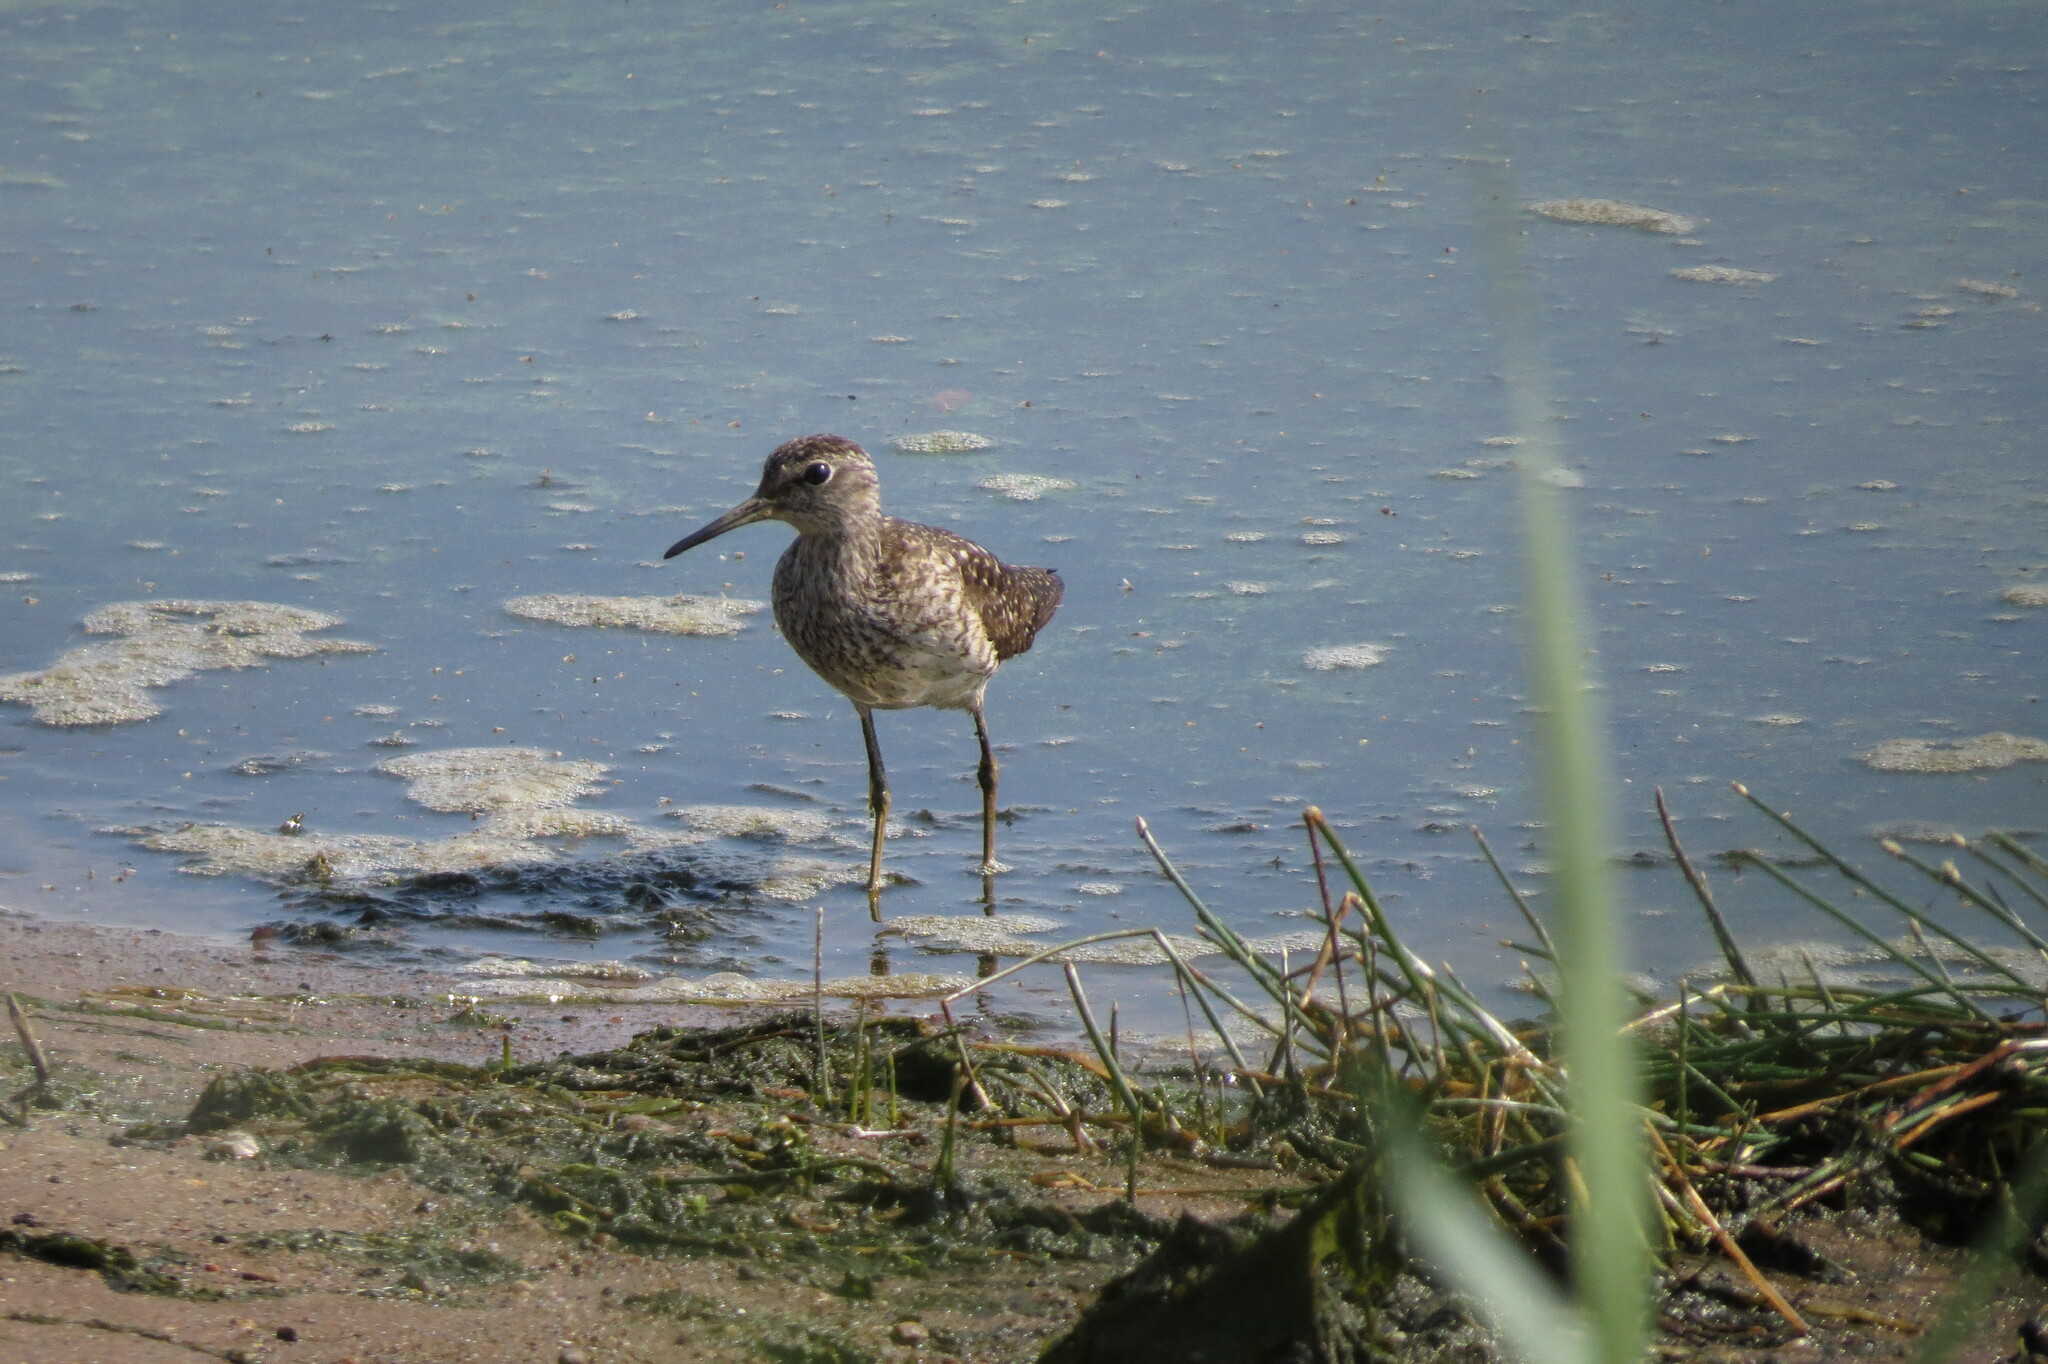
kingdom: Animalia
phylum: Chordata
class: Aves
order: Charadriiformes
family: Scolopacidae
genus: Tringa
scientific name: Tringa glareola
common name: Wood sandpiper
